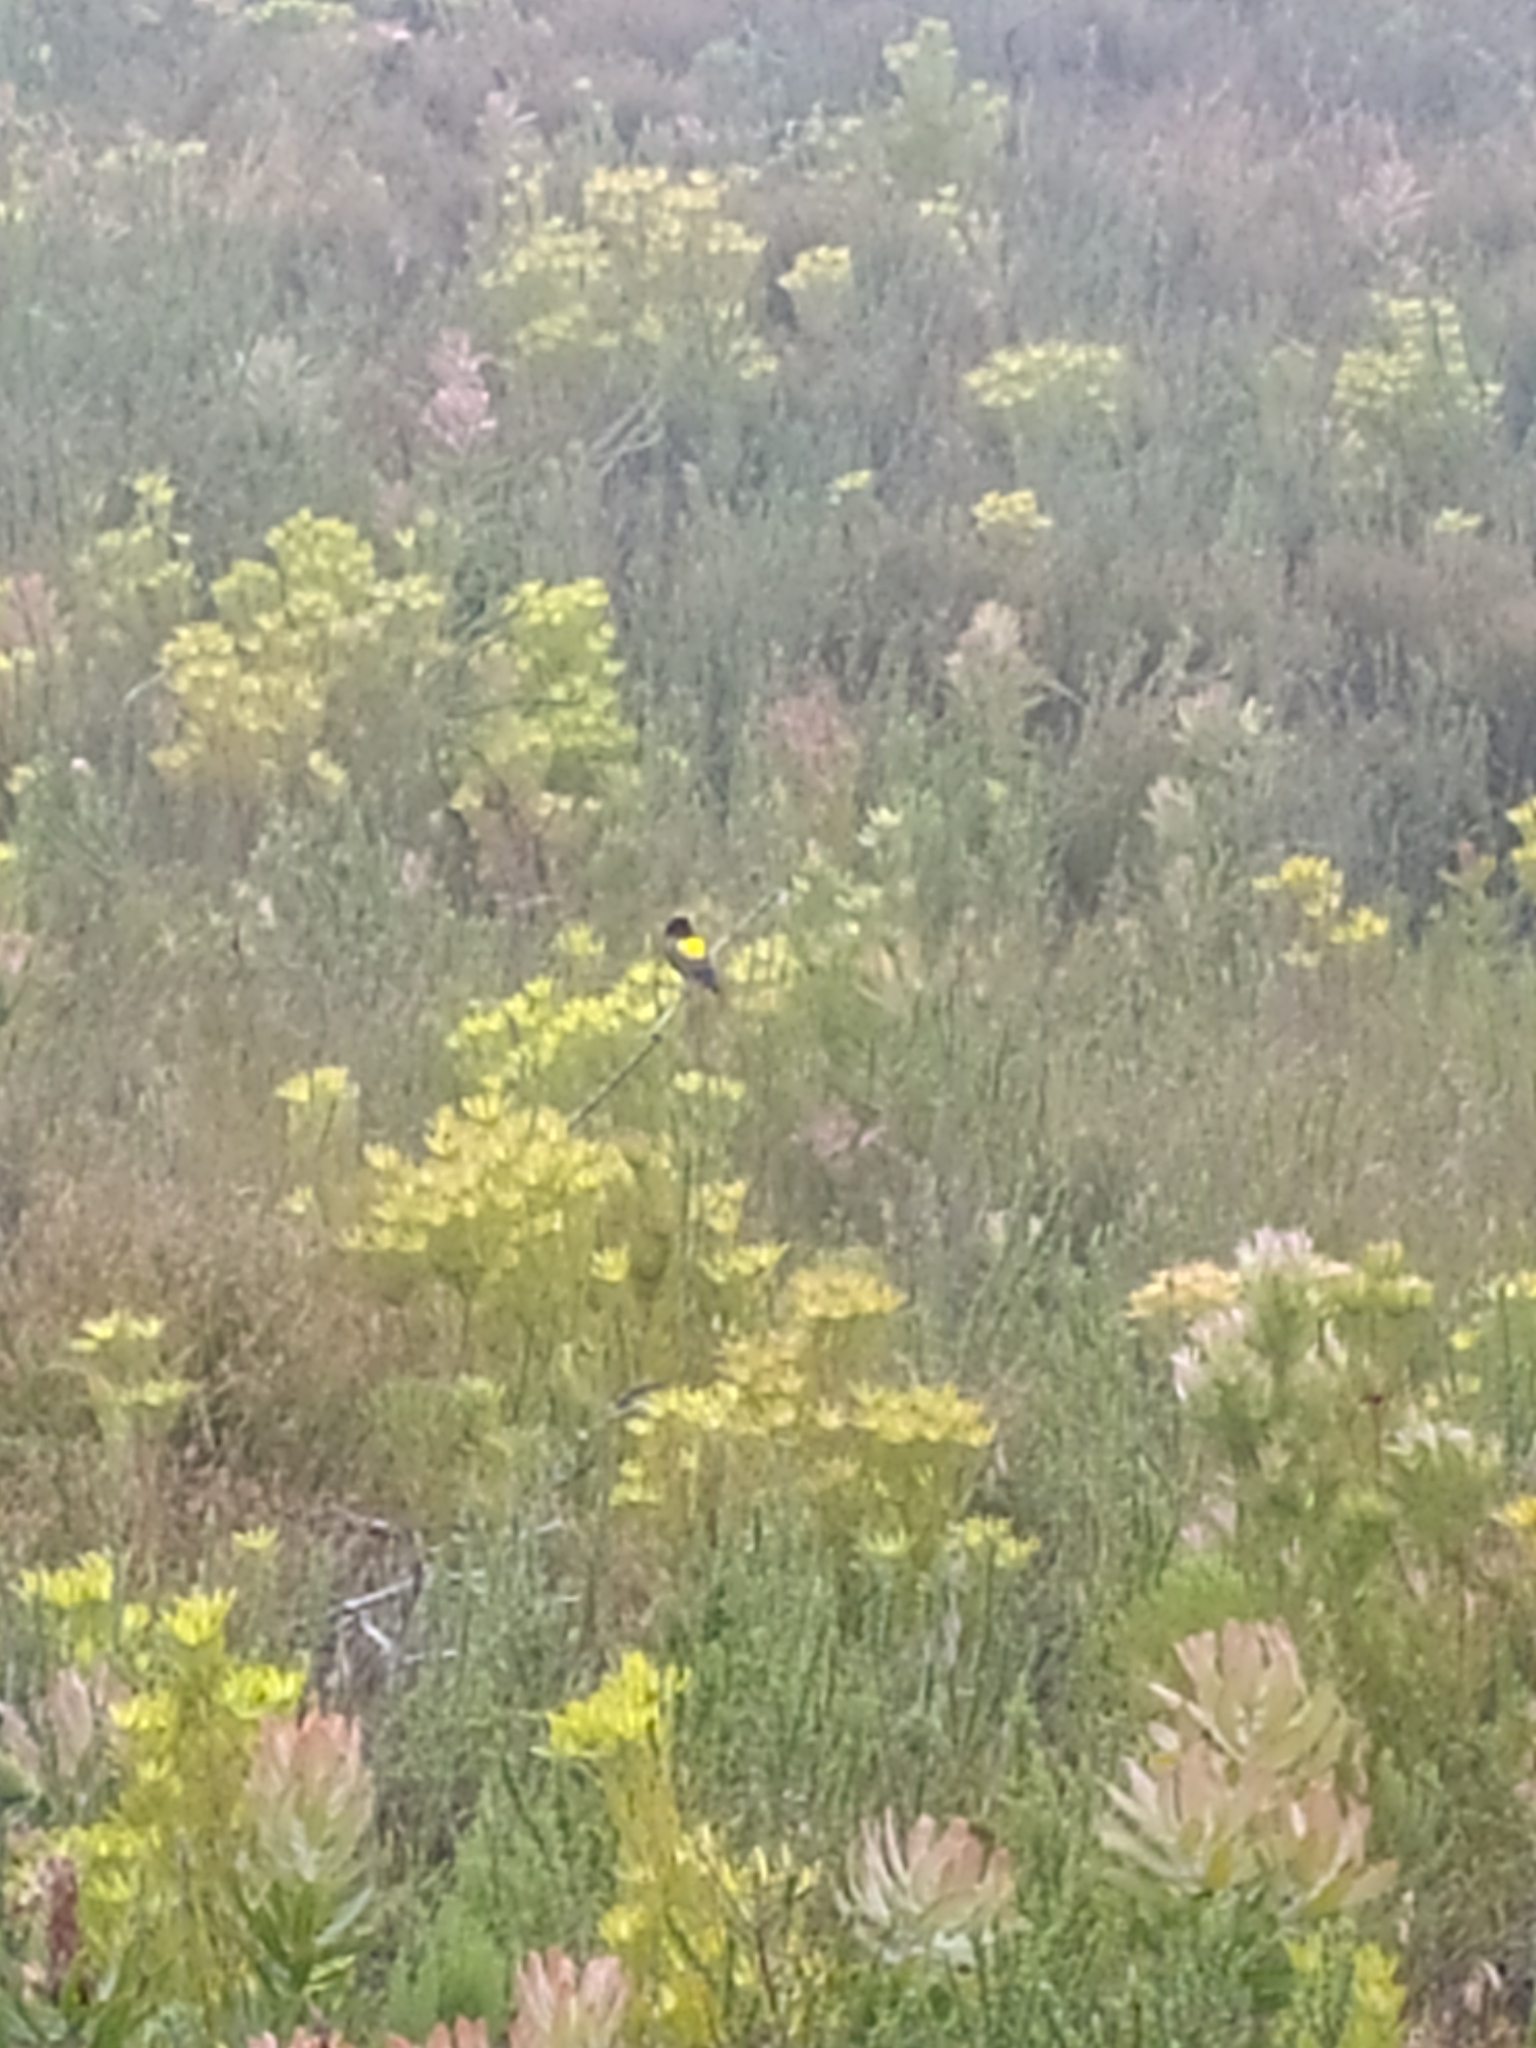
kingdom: Animalia
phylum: Chordata
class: Aves
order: Passeriformes
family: Ploceidae
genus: Euplectes
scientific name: Euplectes capensis
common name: Yellow bishop
